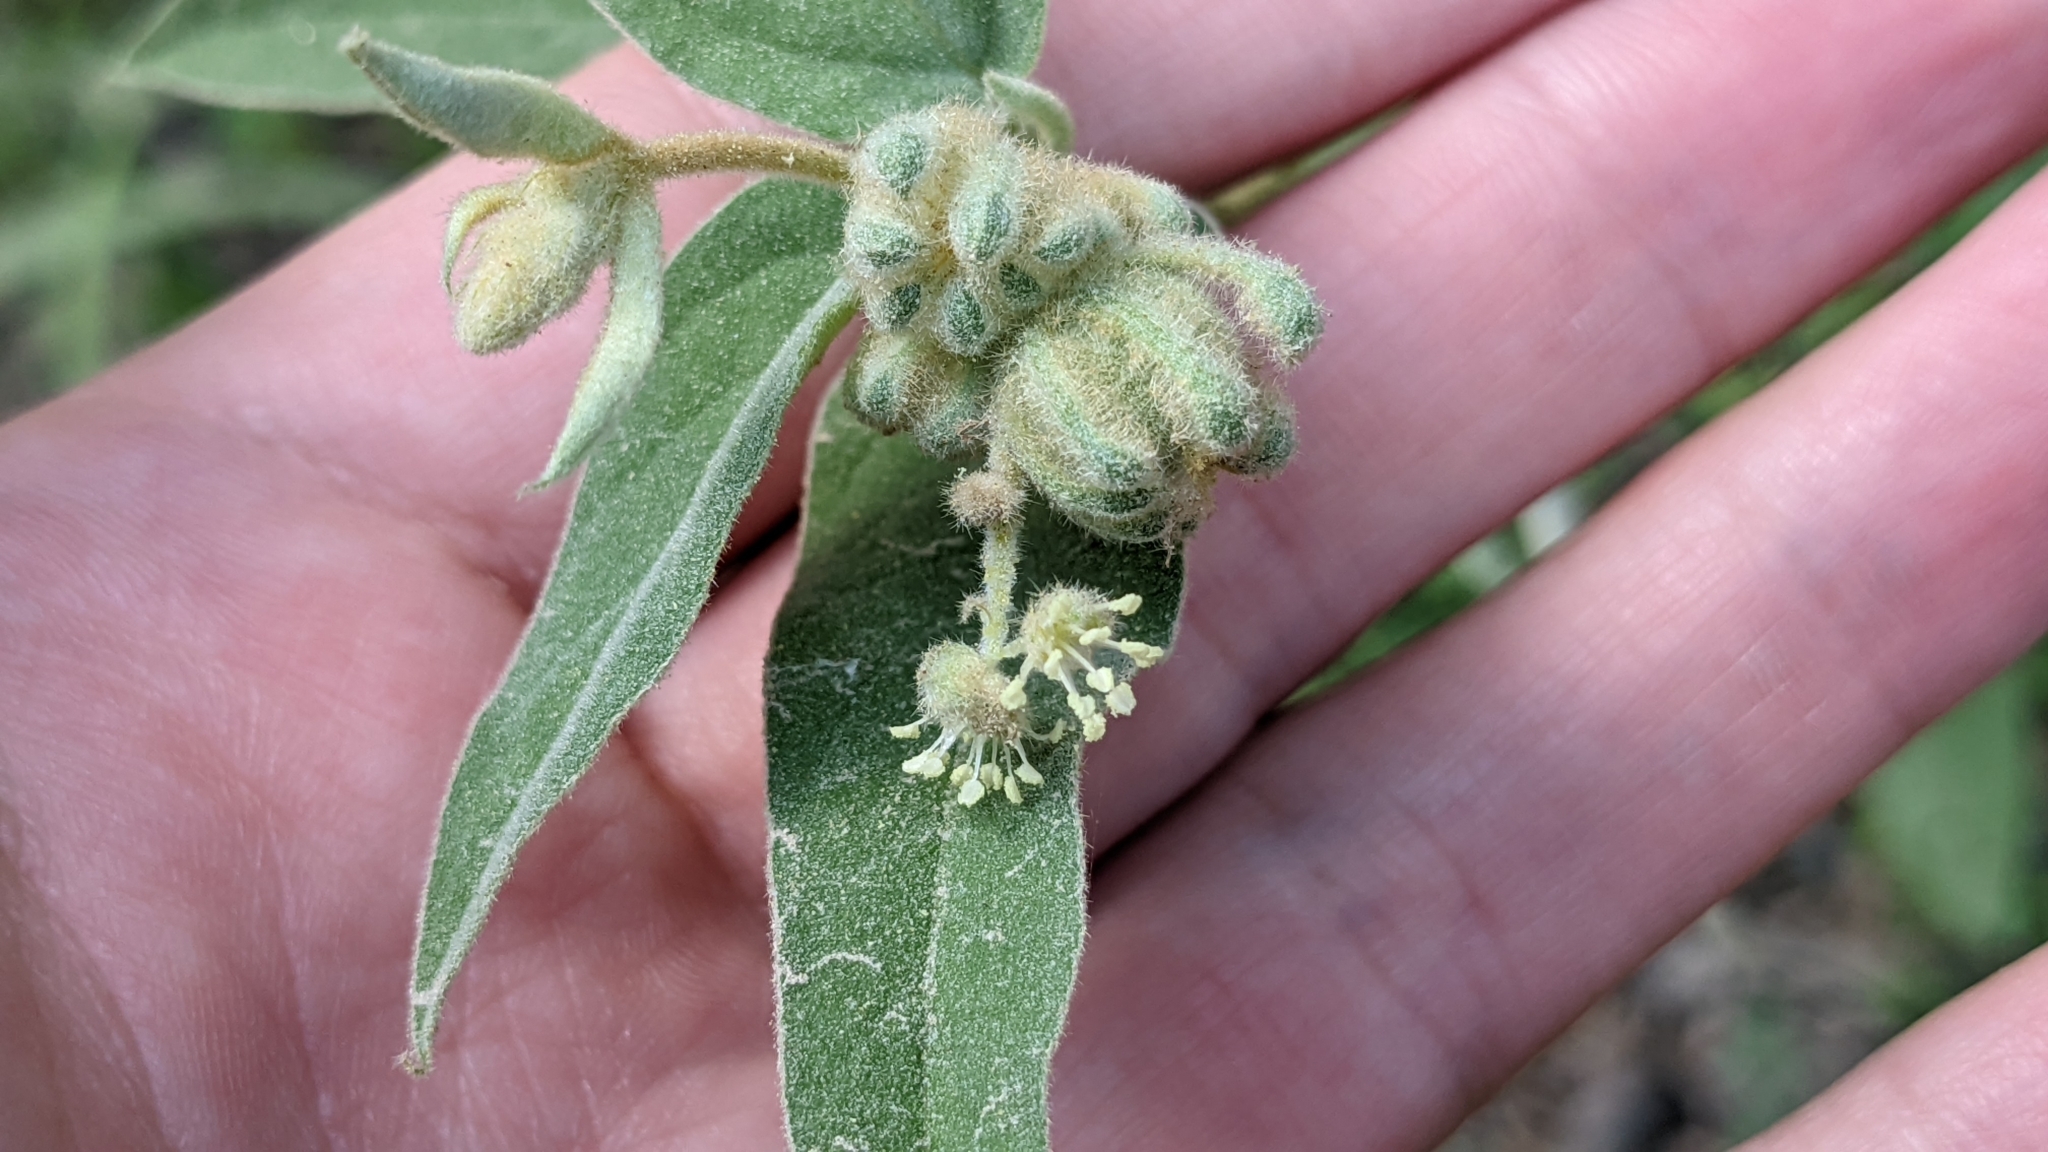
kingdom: Plantae
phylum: Tracheophyta
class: Magnoliopsida
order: Malpighiales
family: Euphorbiaceae
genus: Croton
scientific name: Croton lindheimeri
